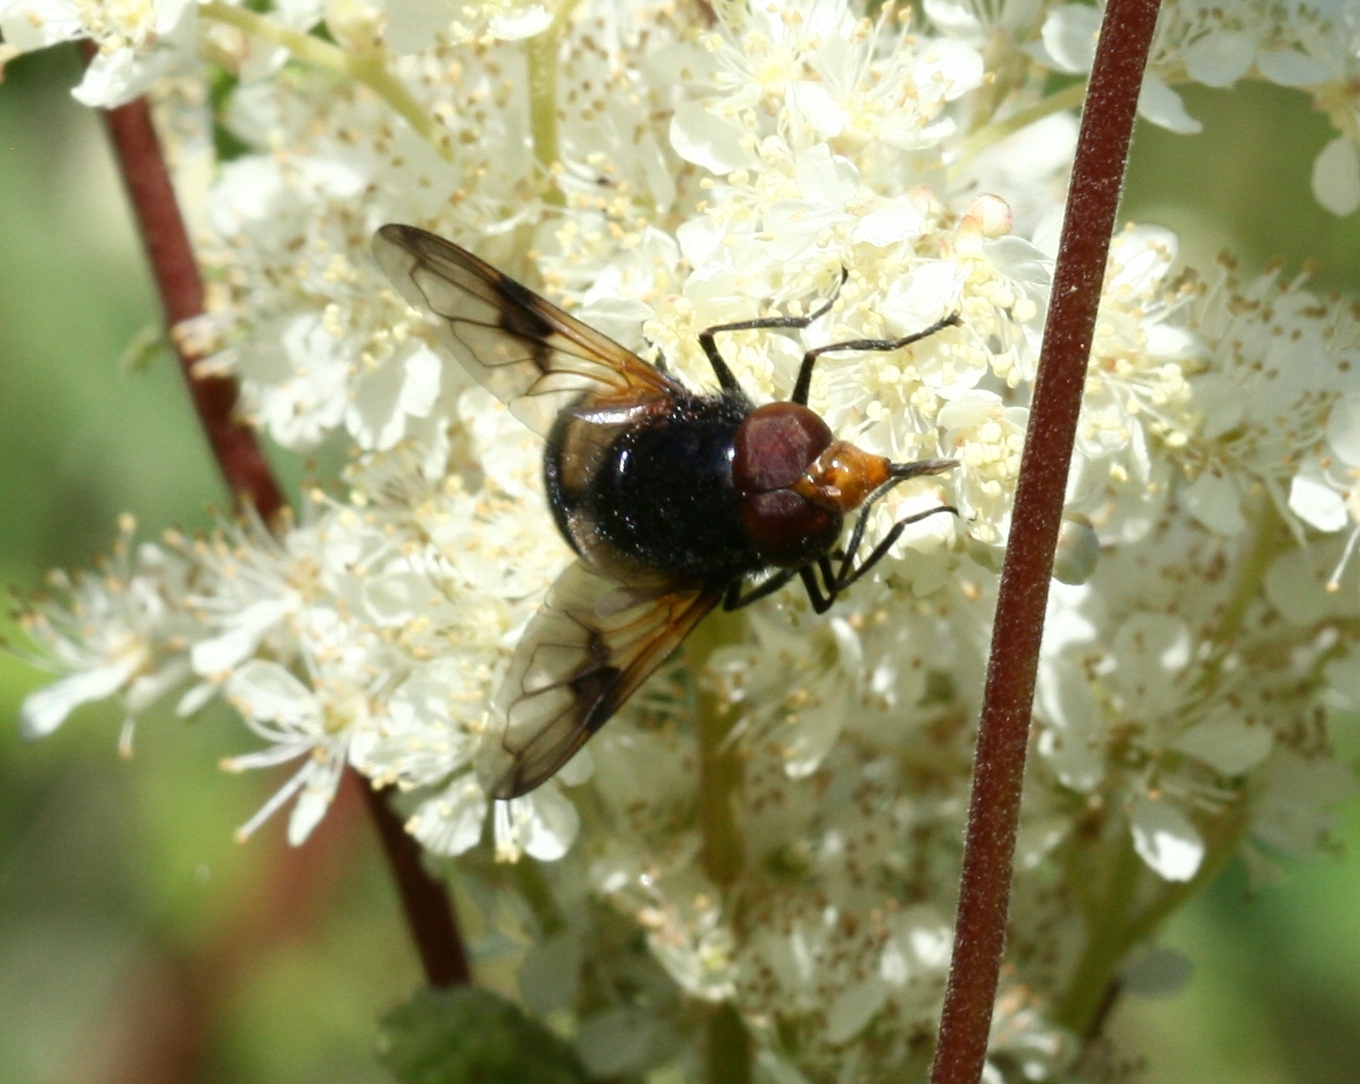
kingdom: Animalia
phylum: Arthropoda
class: Insecta
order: Diptera
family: Syrphidae
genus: Volucella
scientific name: Volucella pellucens
